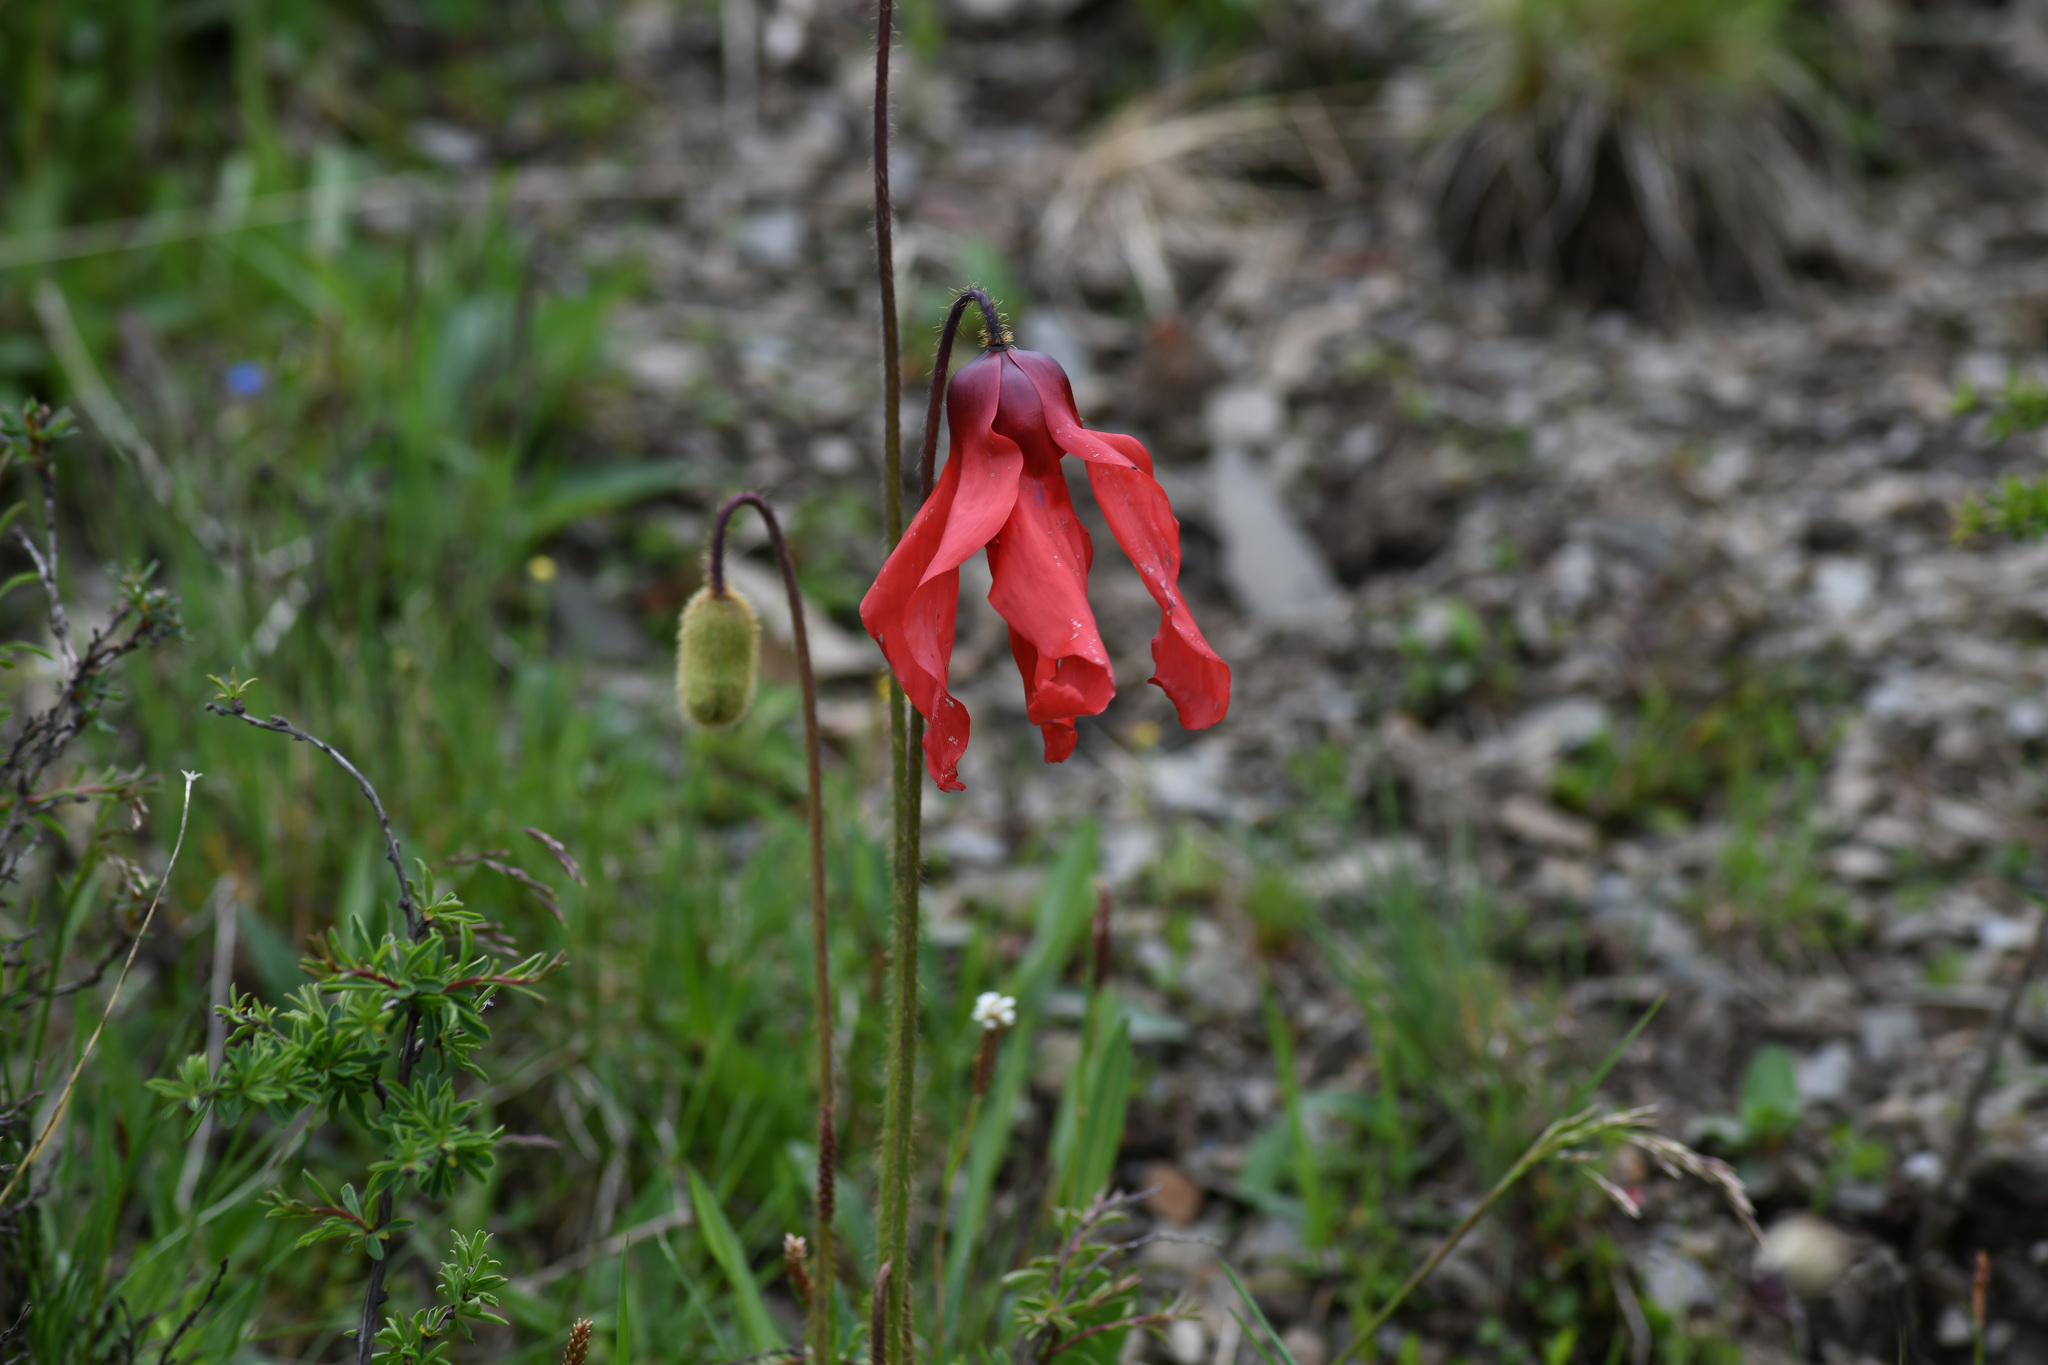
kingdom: Plantae
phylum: Tracheophyta
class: Magnoliopsida
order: Ranunculales
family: Papaveraceae
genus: Meconopsis
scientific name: Meconopsis punicea
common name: Red poppywort
